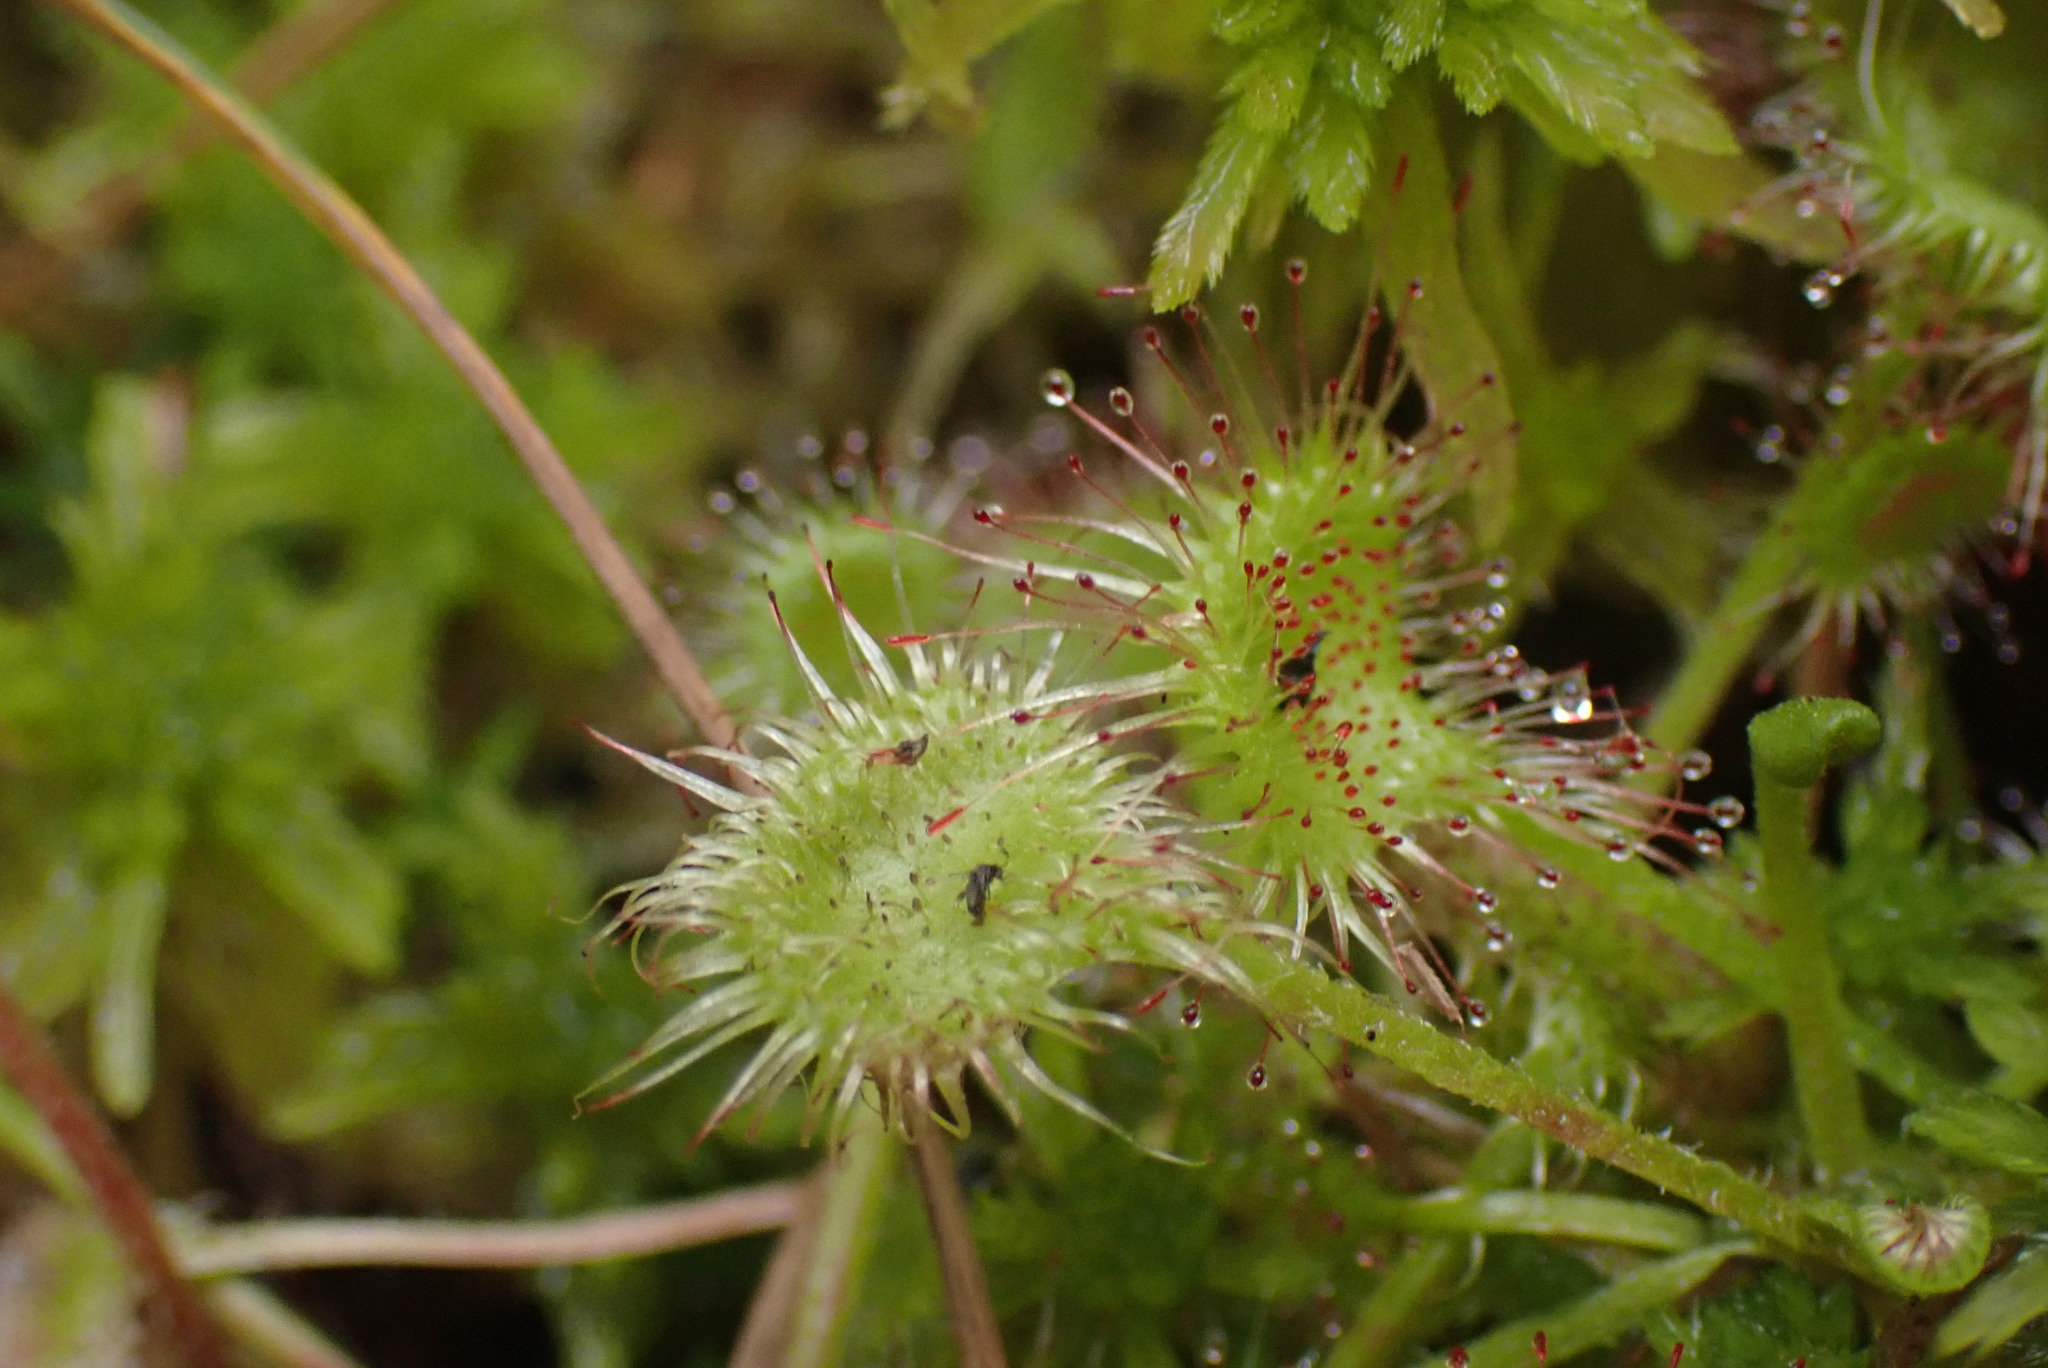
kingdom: Plantae
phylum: Tracheophyta
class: Magnoliopsida
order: Caryophyllales
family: Droseraceae
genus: Drosera
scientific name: Drosera rotundifolia
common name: Round-leaved sundew
